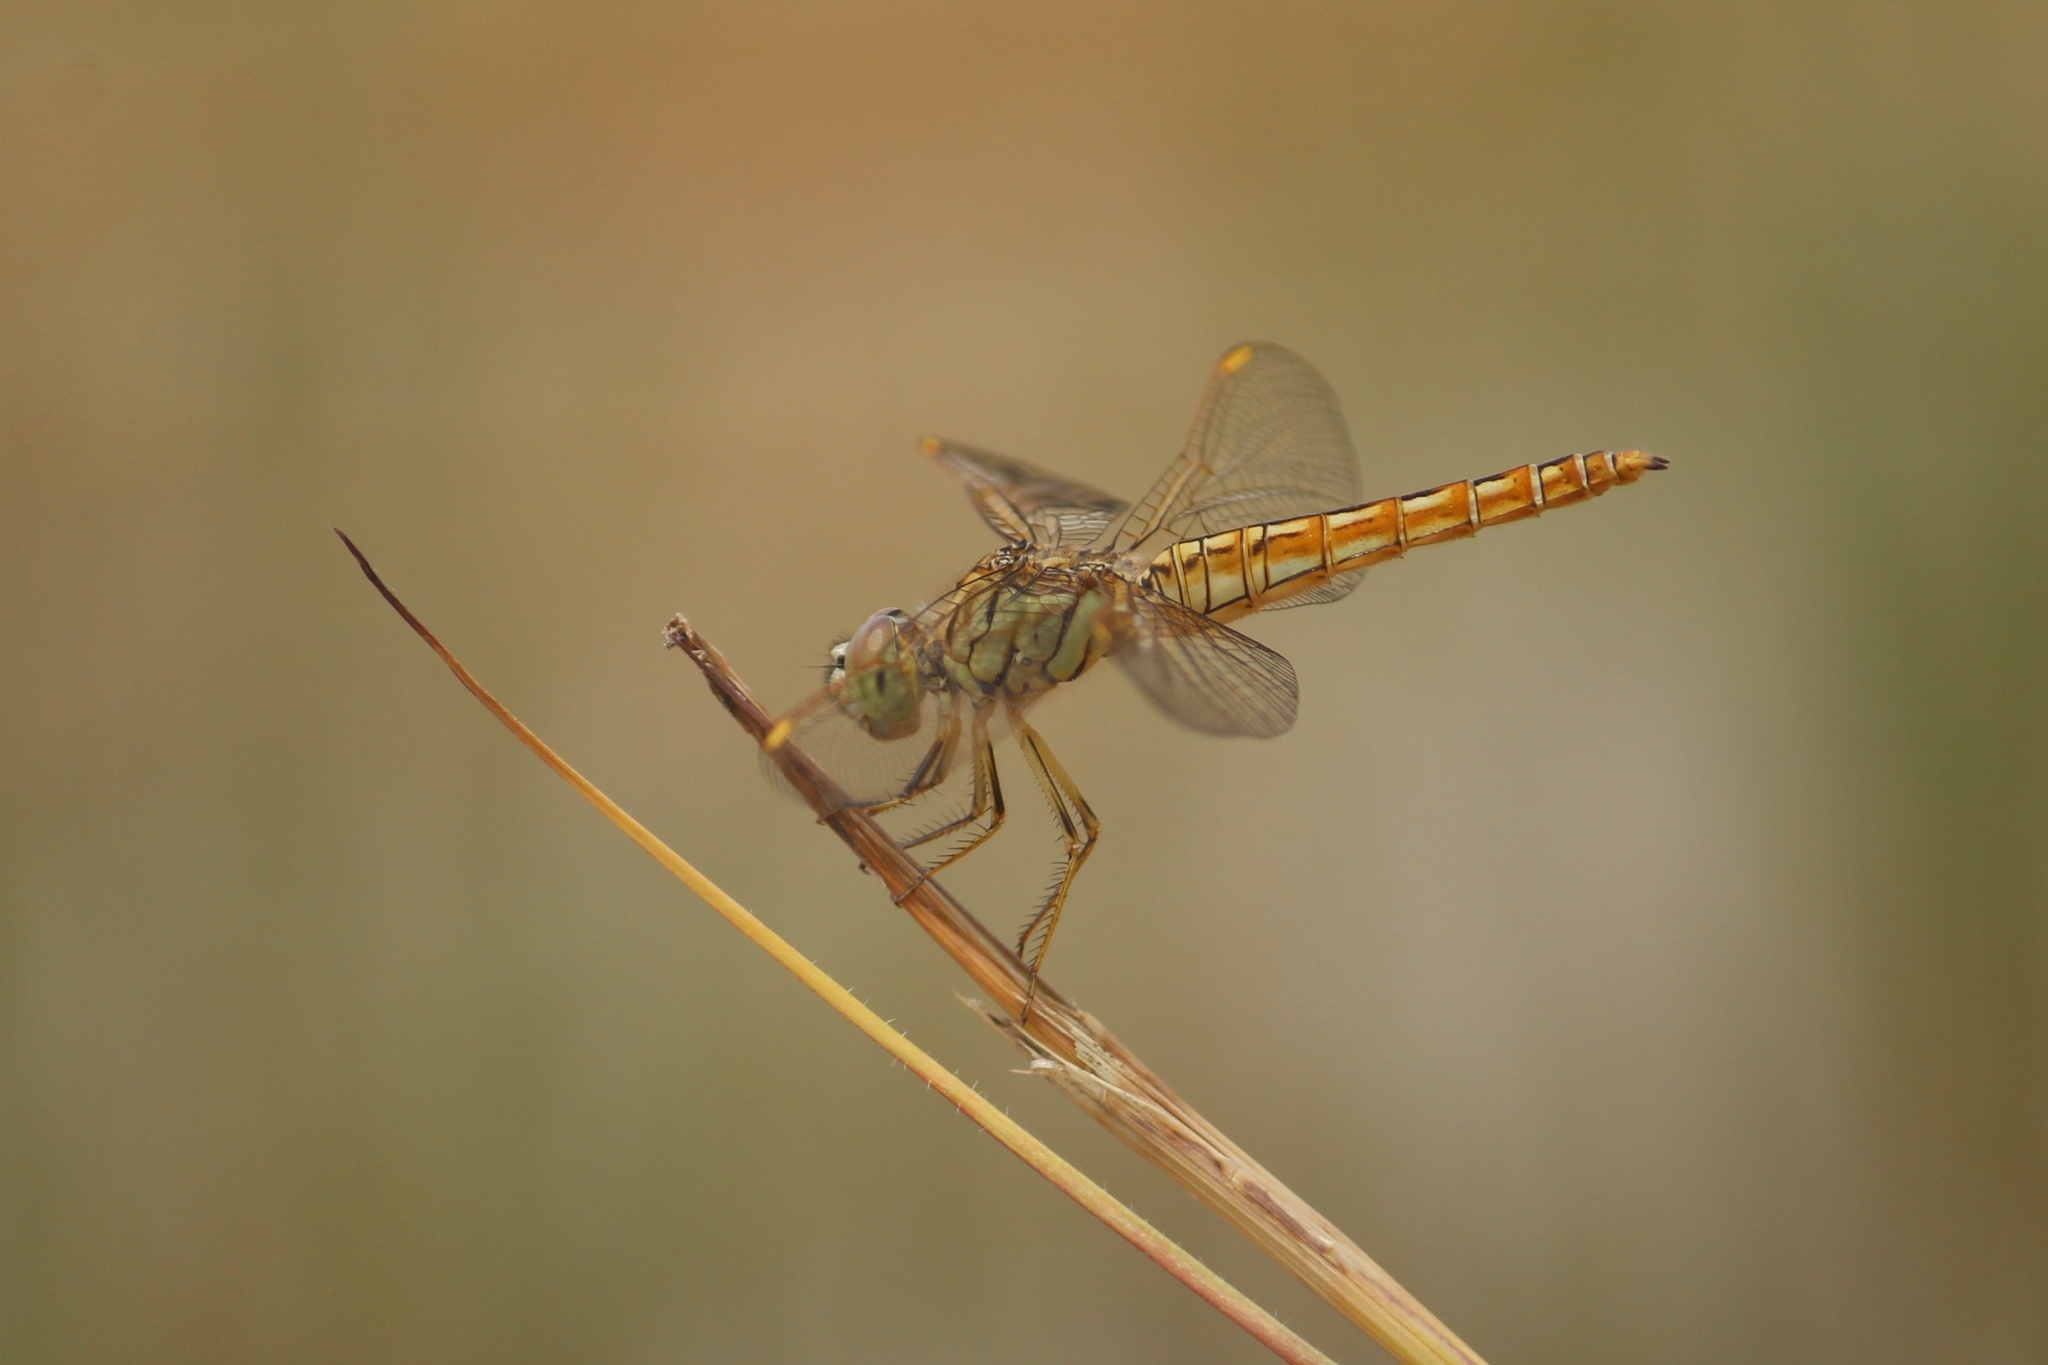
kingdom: Animalia
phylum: Arthropoda
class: Insecta
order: Odonata
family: Libellulidae
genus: Brachythemis
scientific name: Brachythemis contaminata
